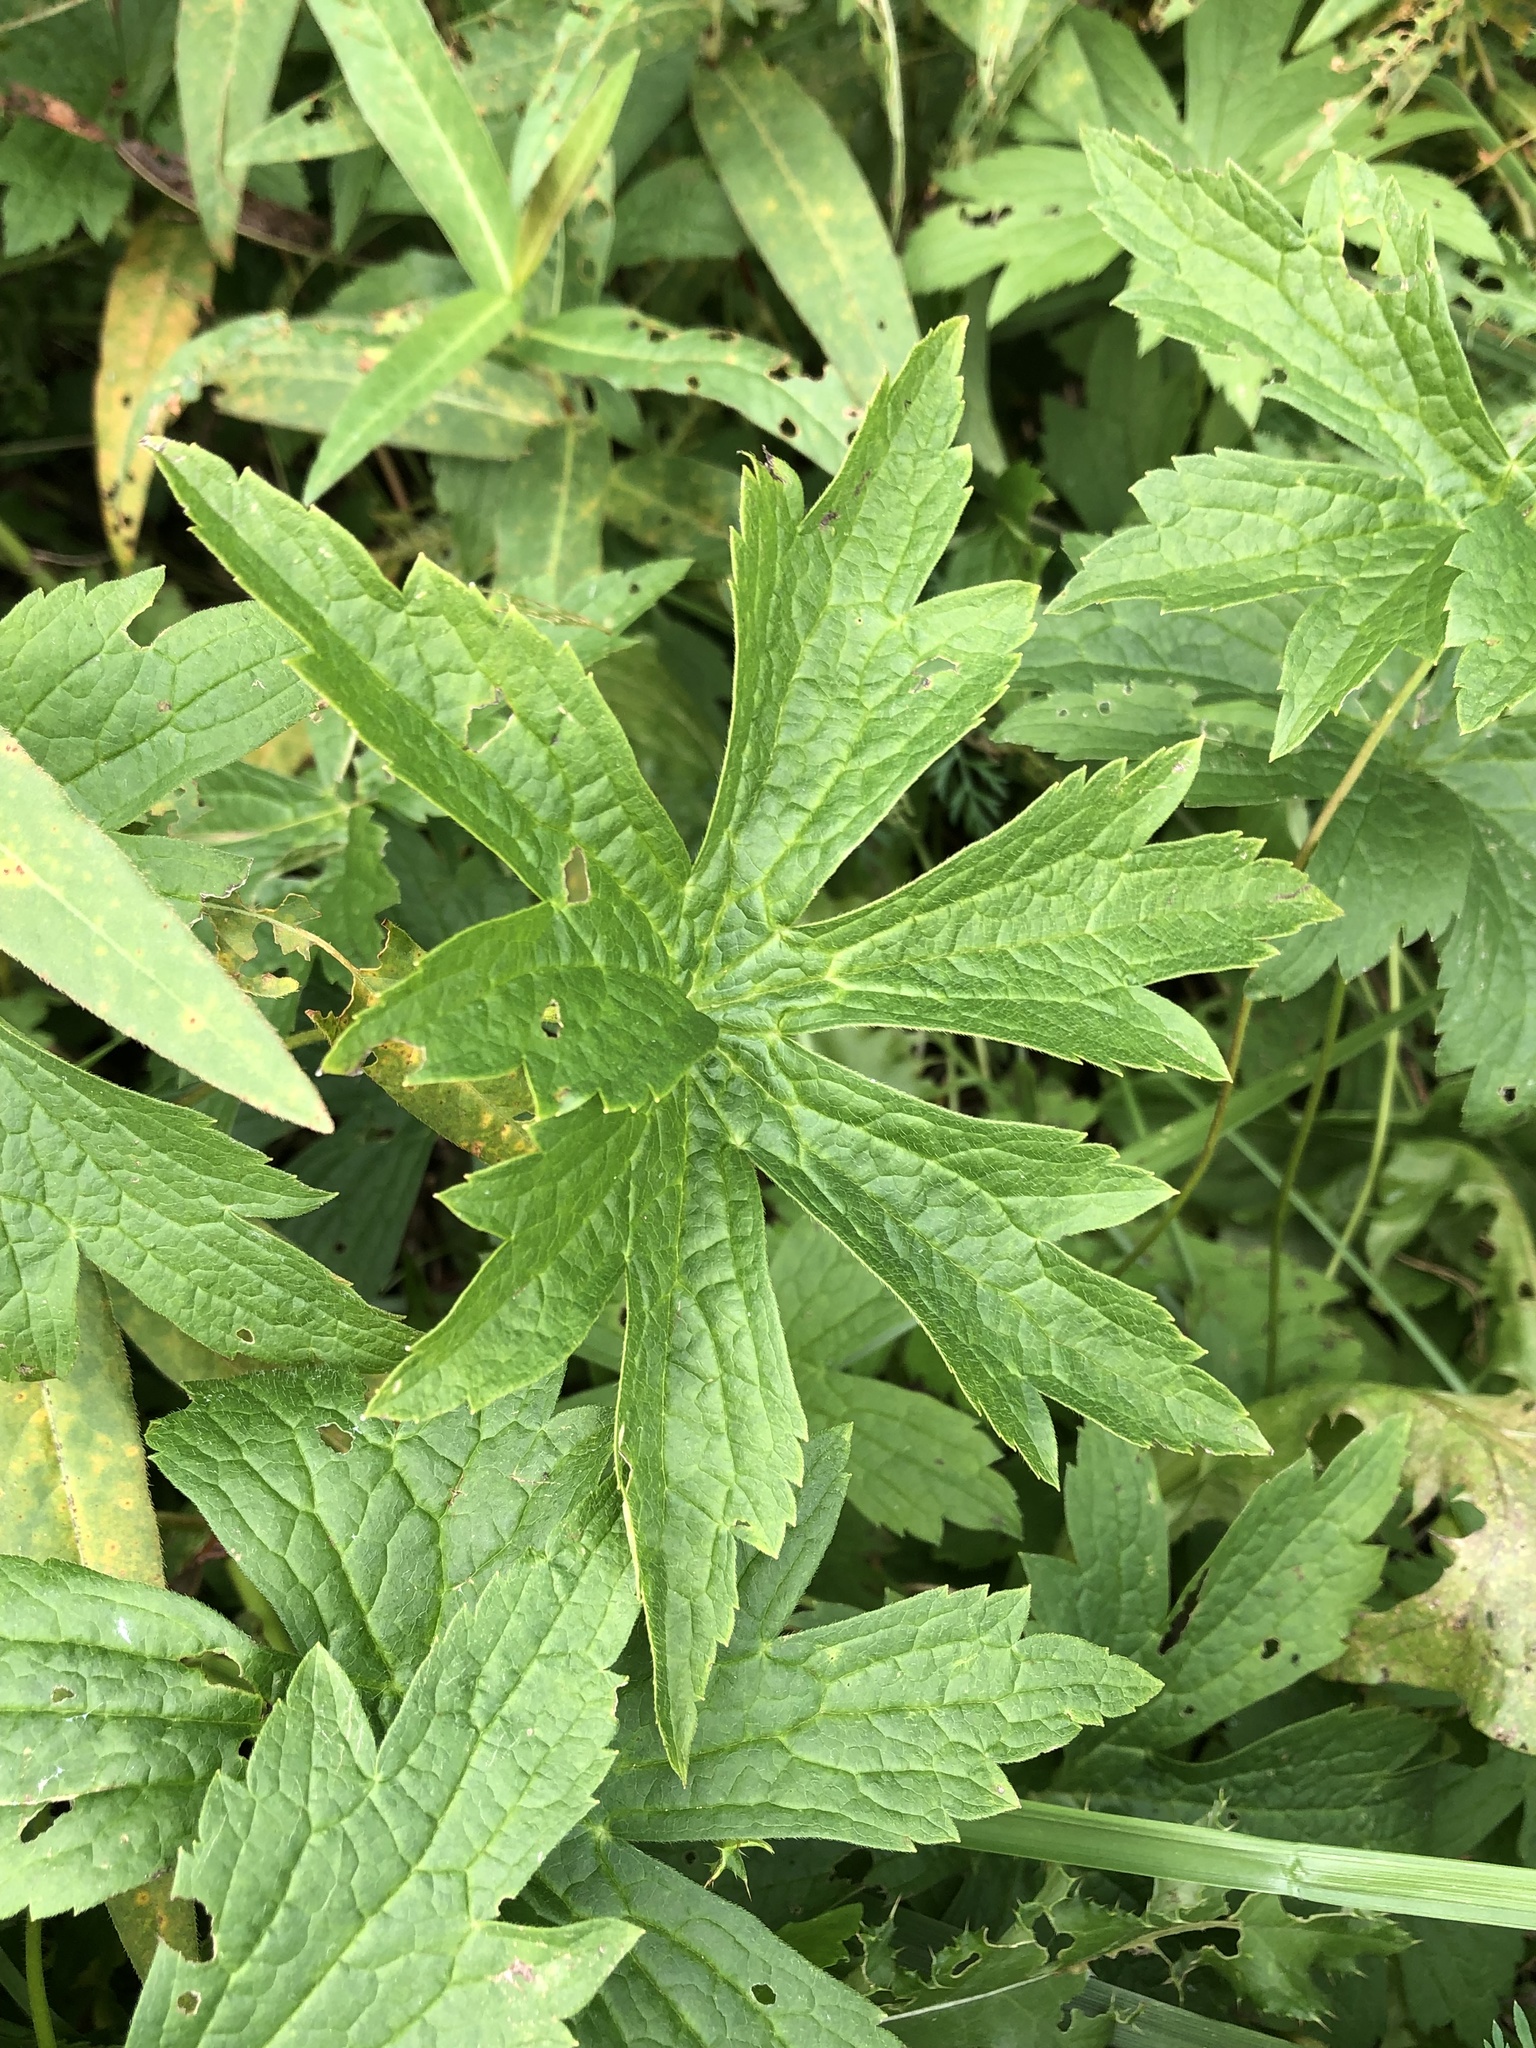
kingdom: Plantae
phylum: Tracheophyta
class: Magnoliopsida
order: Ranunculales
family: Ranunculaceae
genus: Anemonastrum
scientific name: Anemonastrum canadense
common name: Canada anemone
